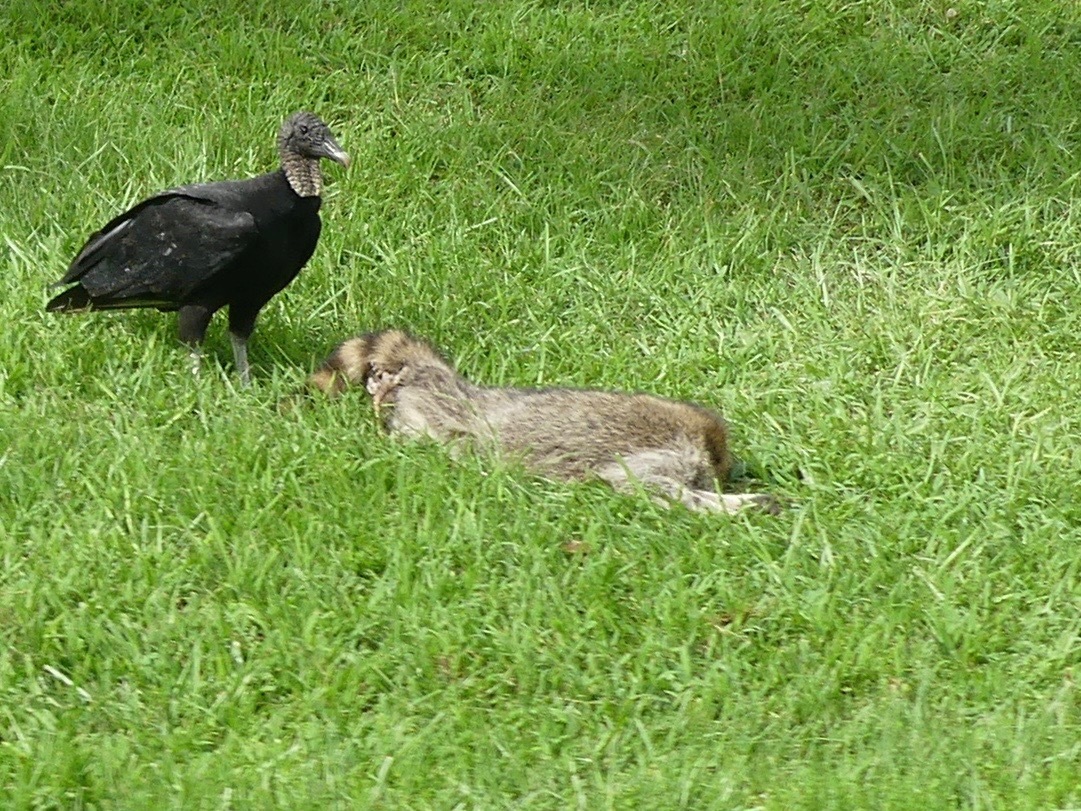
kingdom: Animalia
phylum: Chordata
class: Mammalia
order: Carnivora
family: Procyonidae
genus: Procyon
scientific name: Procyon lotor
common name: Raccoon
